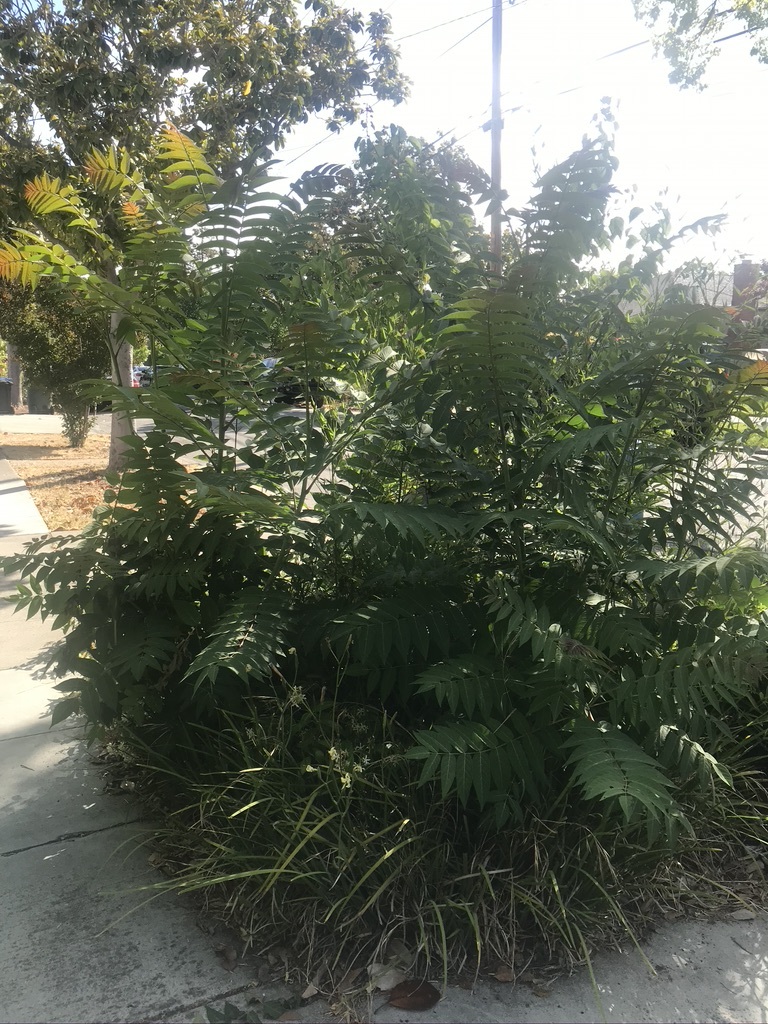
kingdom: Plantae
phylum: Tracheophyta
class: Magnoliopsida
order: Sapindales
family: Simaroubaceae
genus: Ailanthus
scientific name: Ailanthus altissima
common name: Tree-of-heaven
